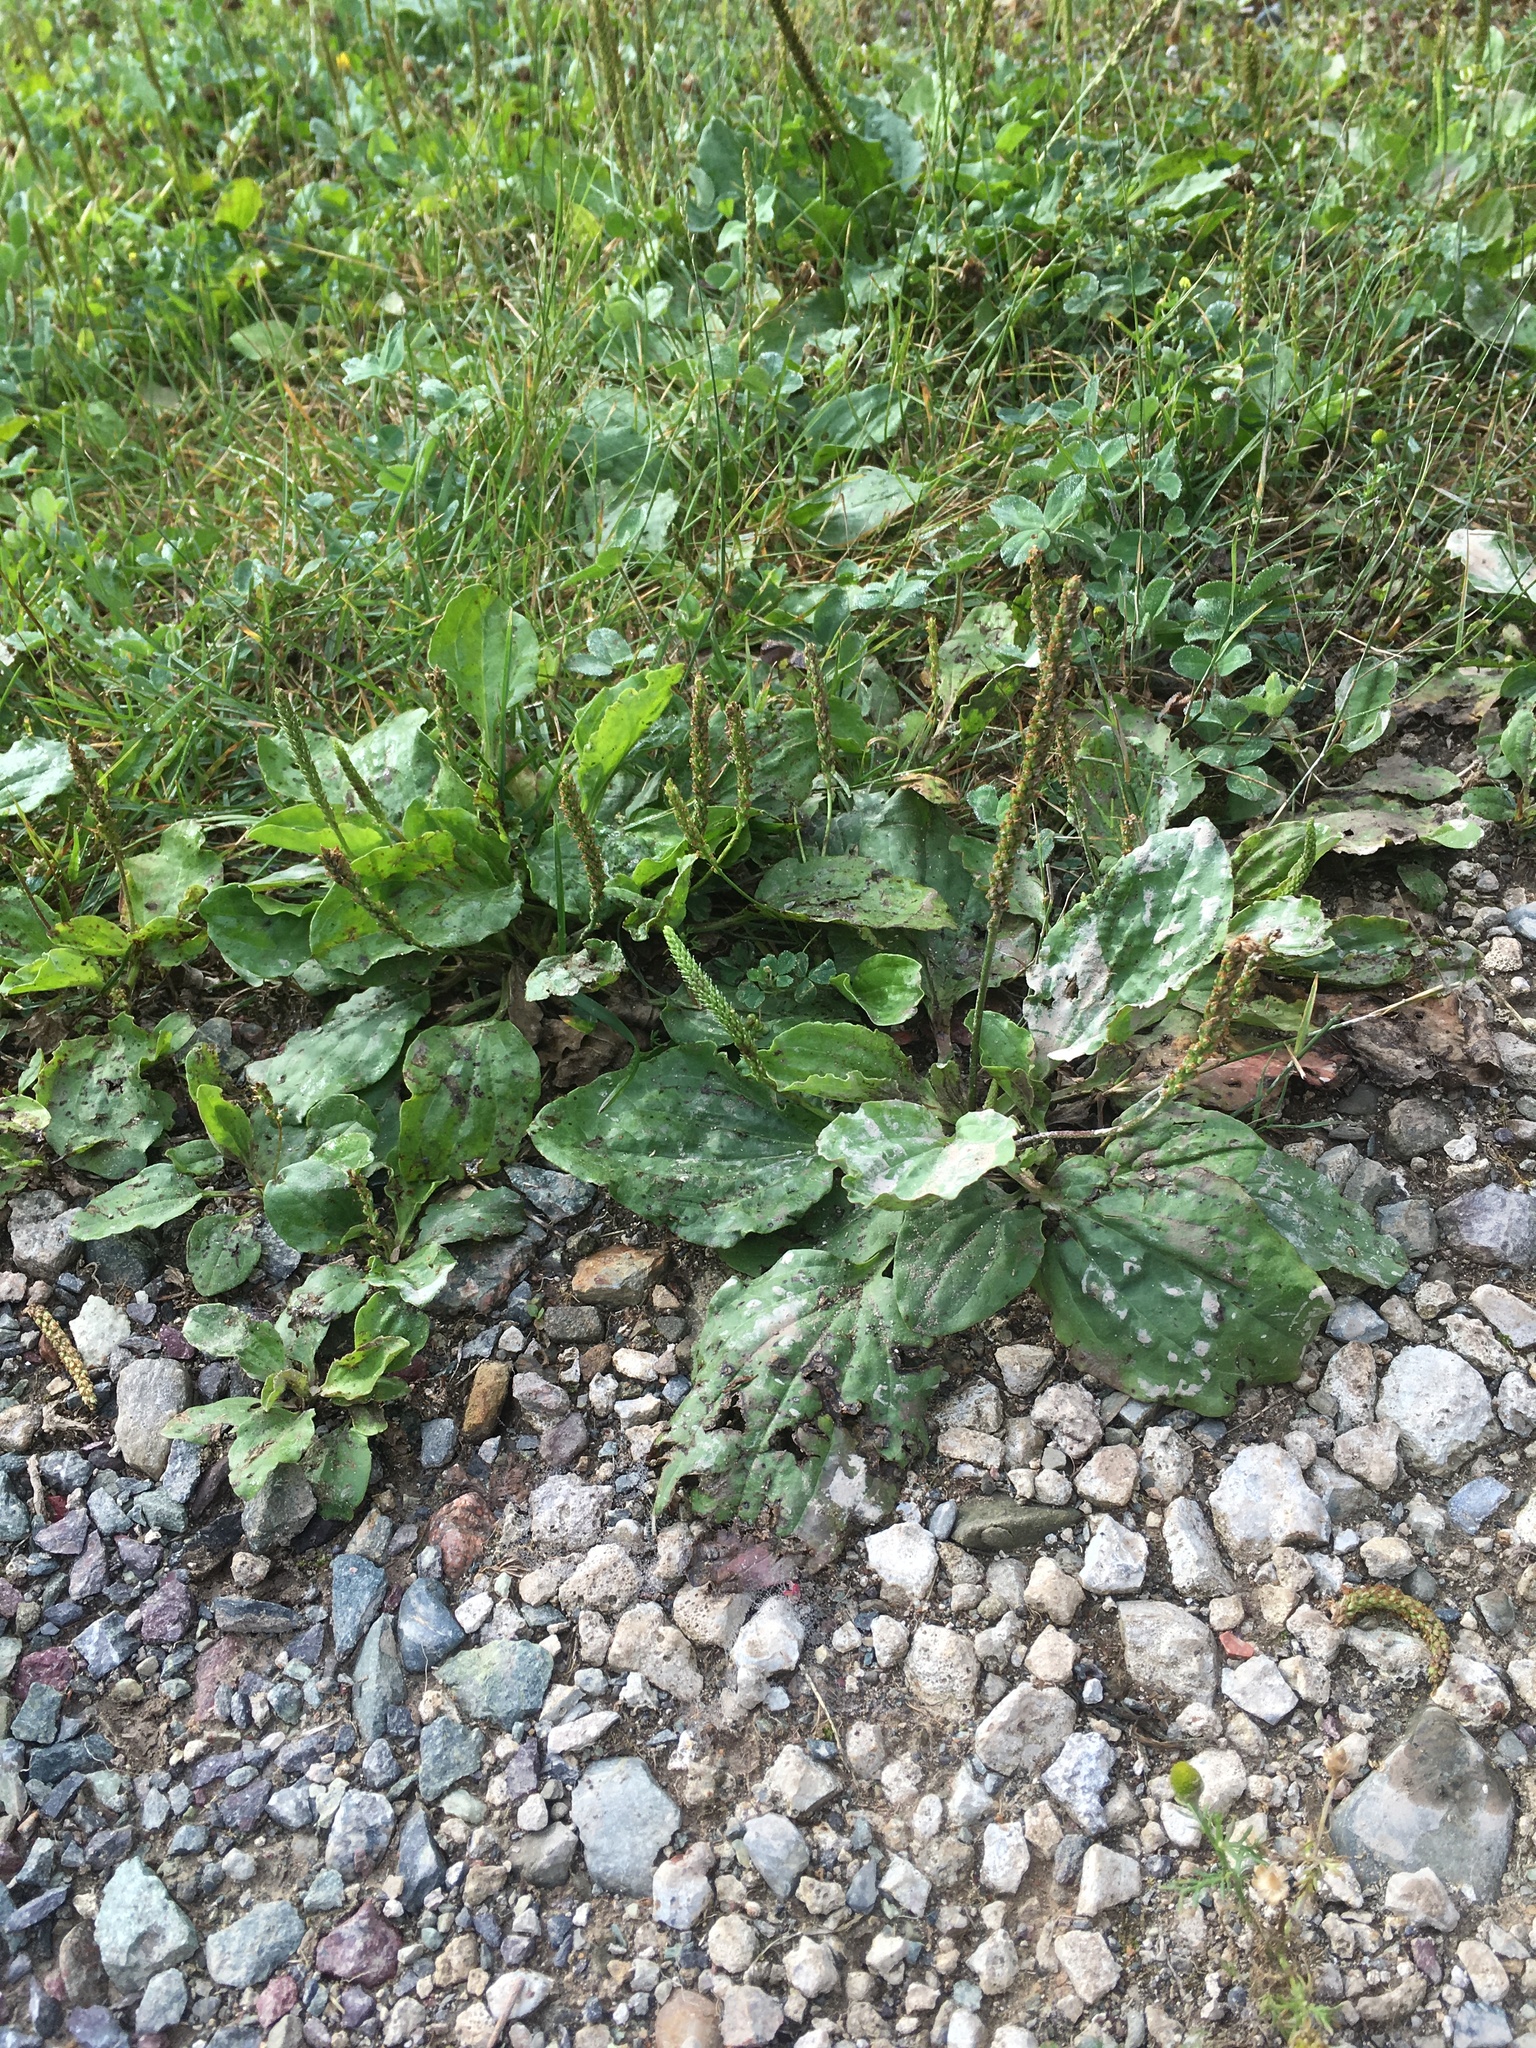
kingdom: Plantae
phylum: Tracheophyta
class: Magnoliopsida
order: Lamiales
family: Plantaginaceae
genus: Plantago
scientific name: Plantago major
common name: Common plantain
